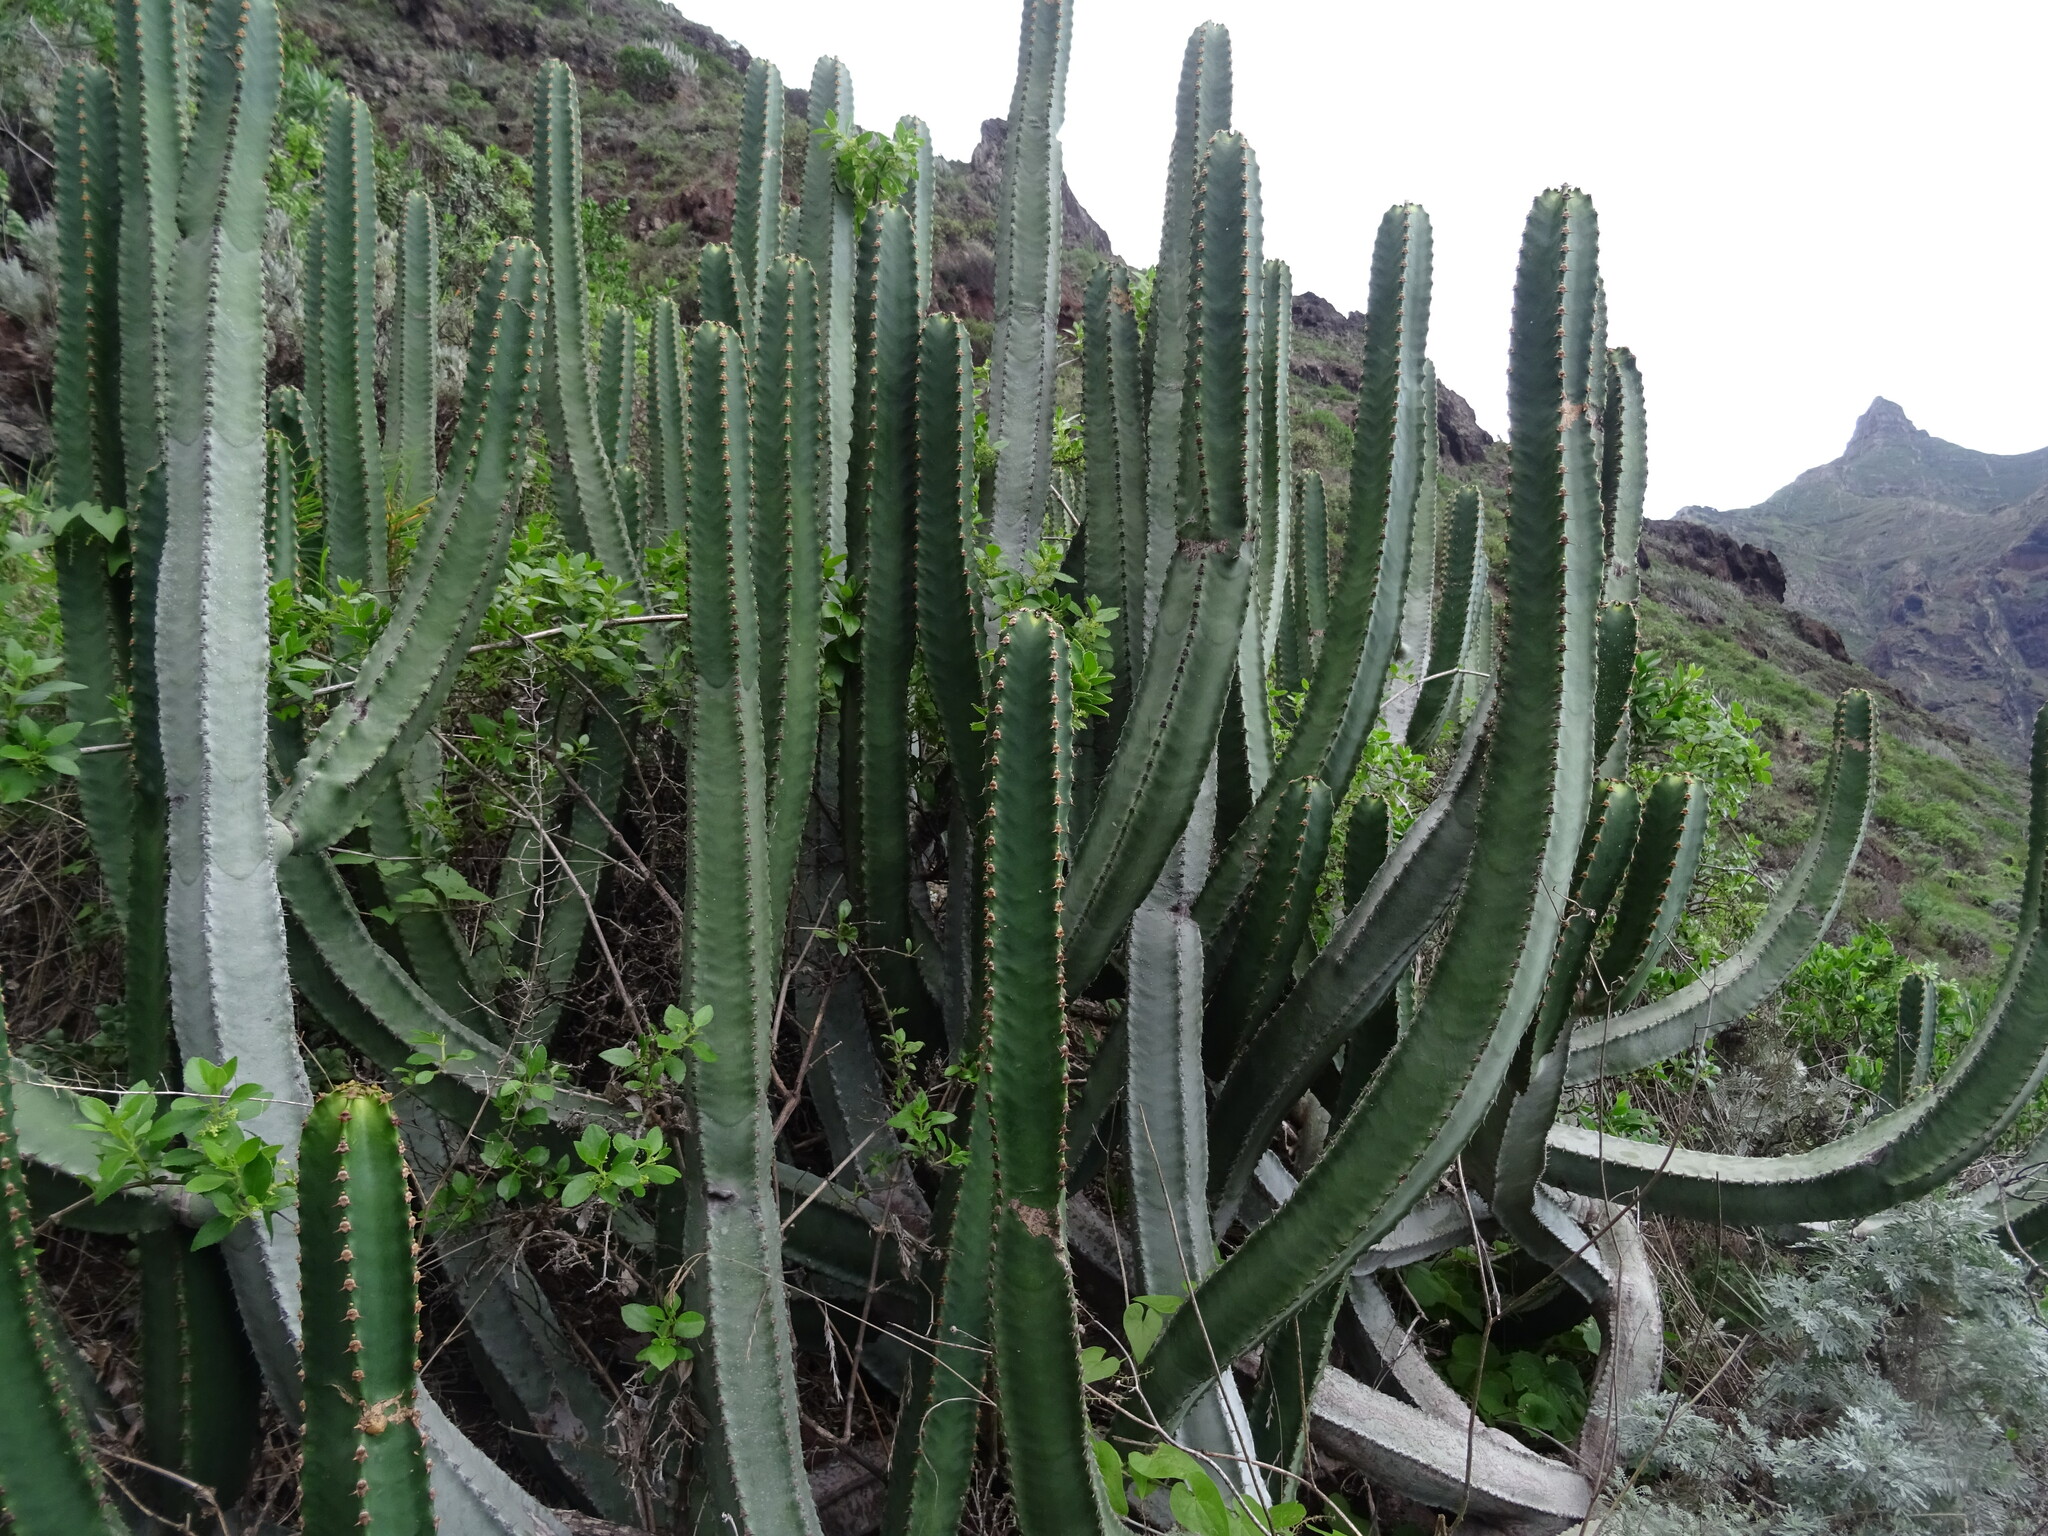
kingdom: Plantae
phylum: Tracheophyta
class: Magnoliopsida
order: Malpighiales
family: Euphorbiaceae
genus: Euphorbia
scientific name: Euphorbia canariensis
